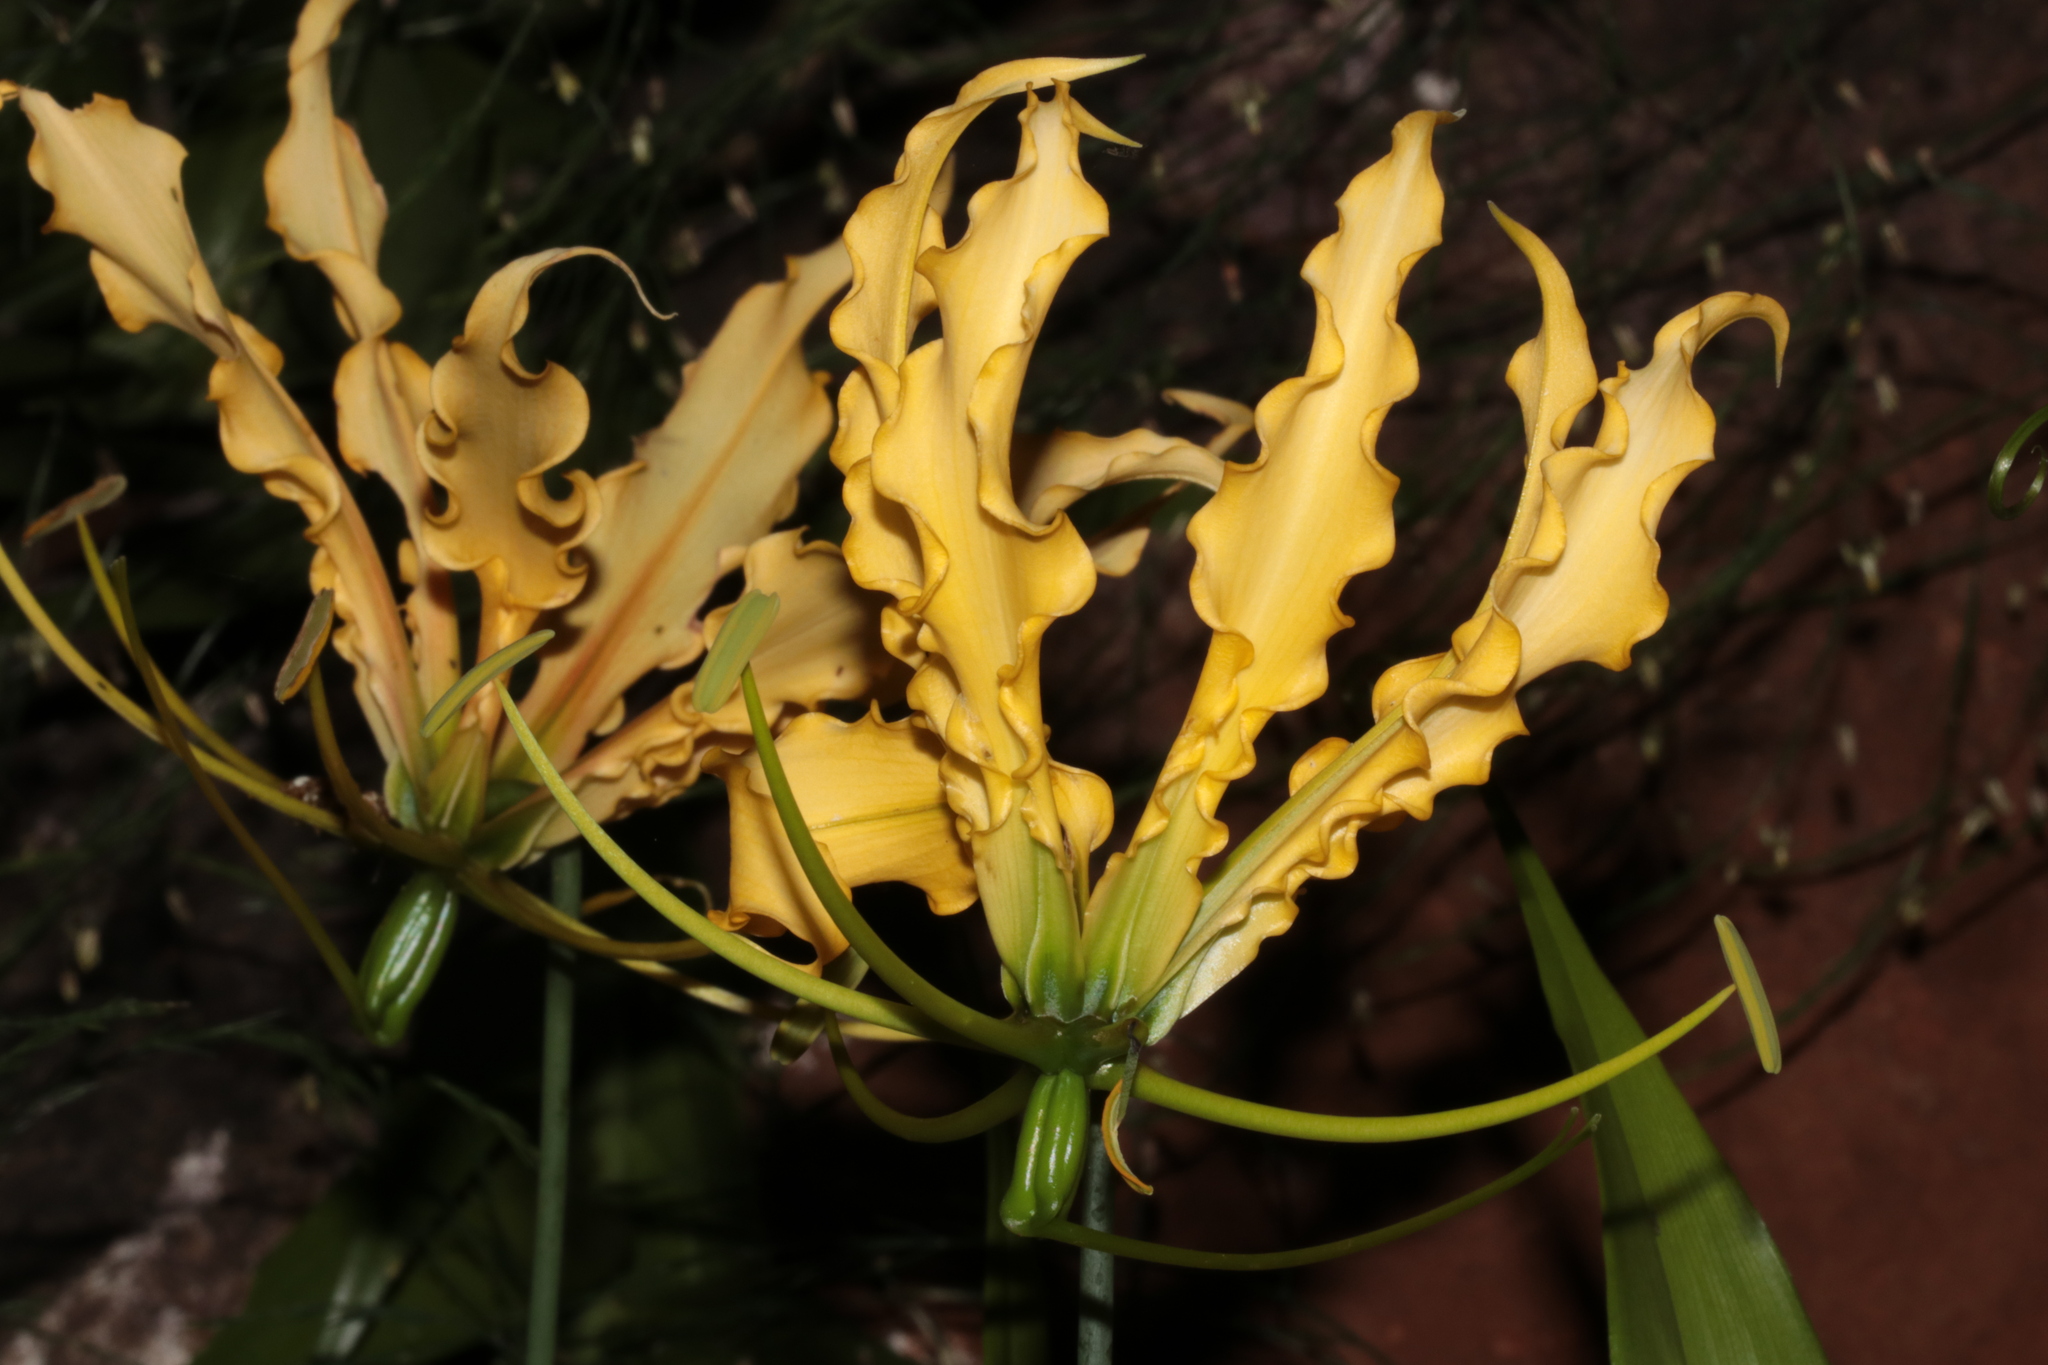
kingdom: Plantae
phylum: Tracheophyta
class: Liliopsida
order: Liliales
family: Colchicaceae
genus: Gloriosa
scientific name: Gloriosa superba
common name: Flame lily
